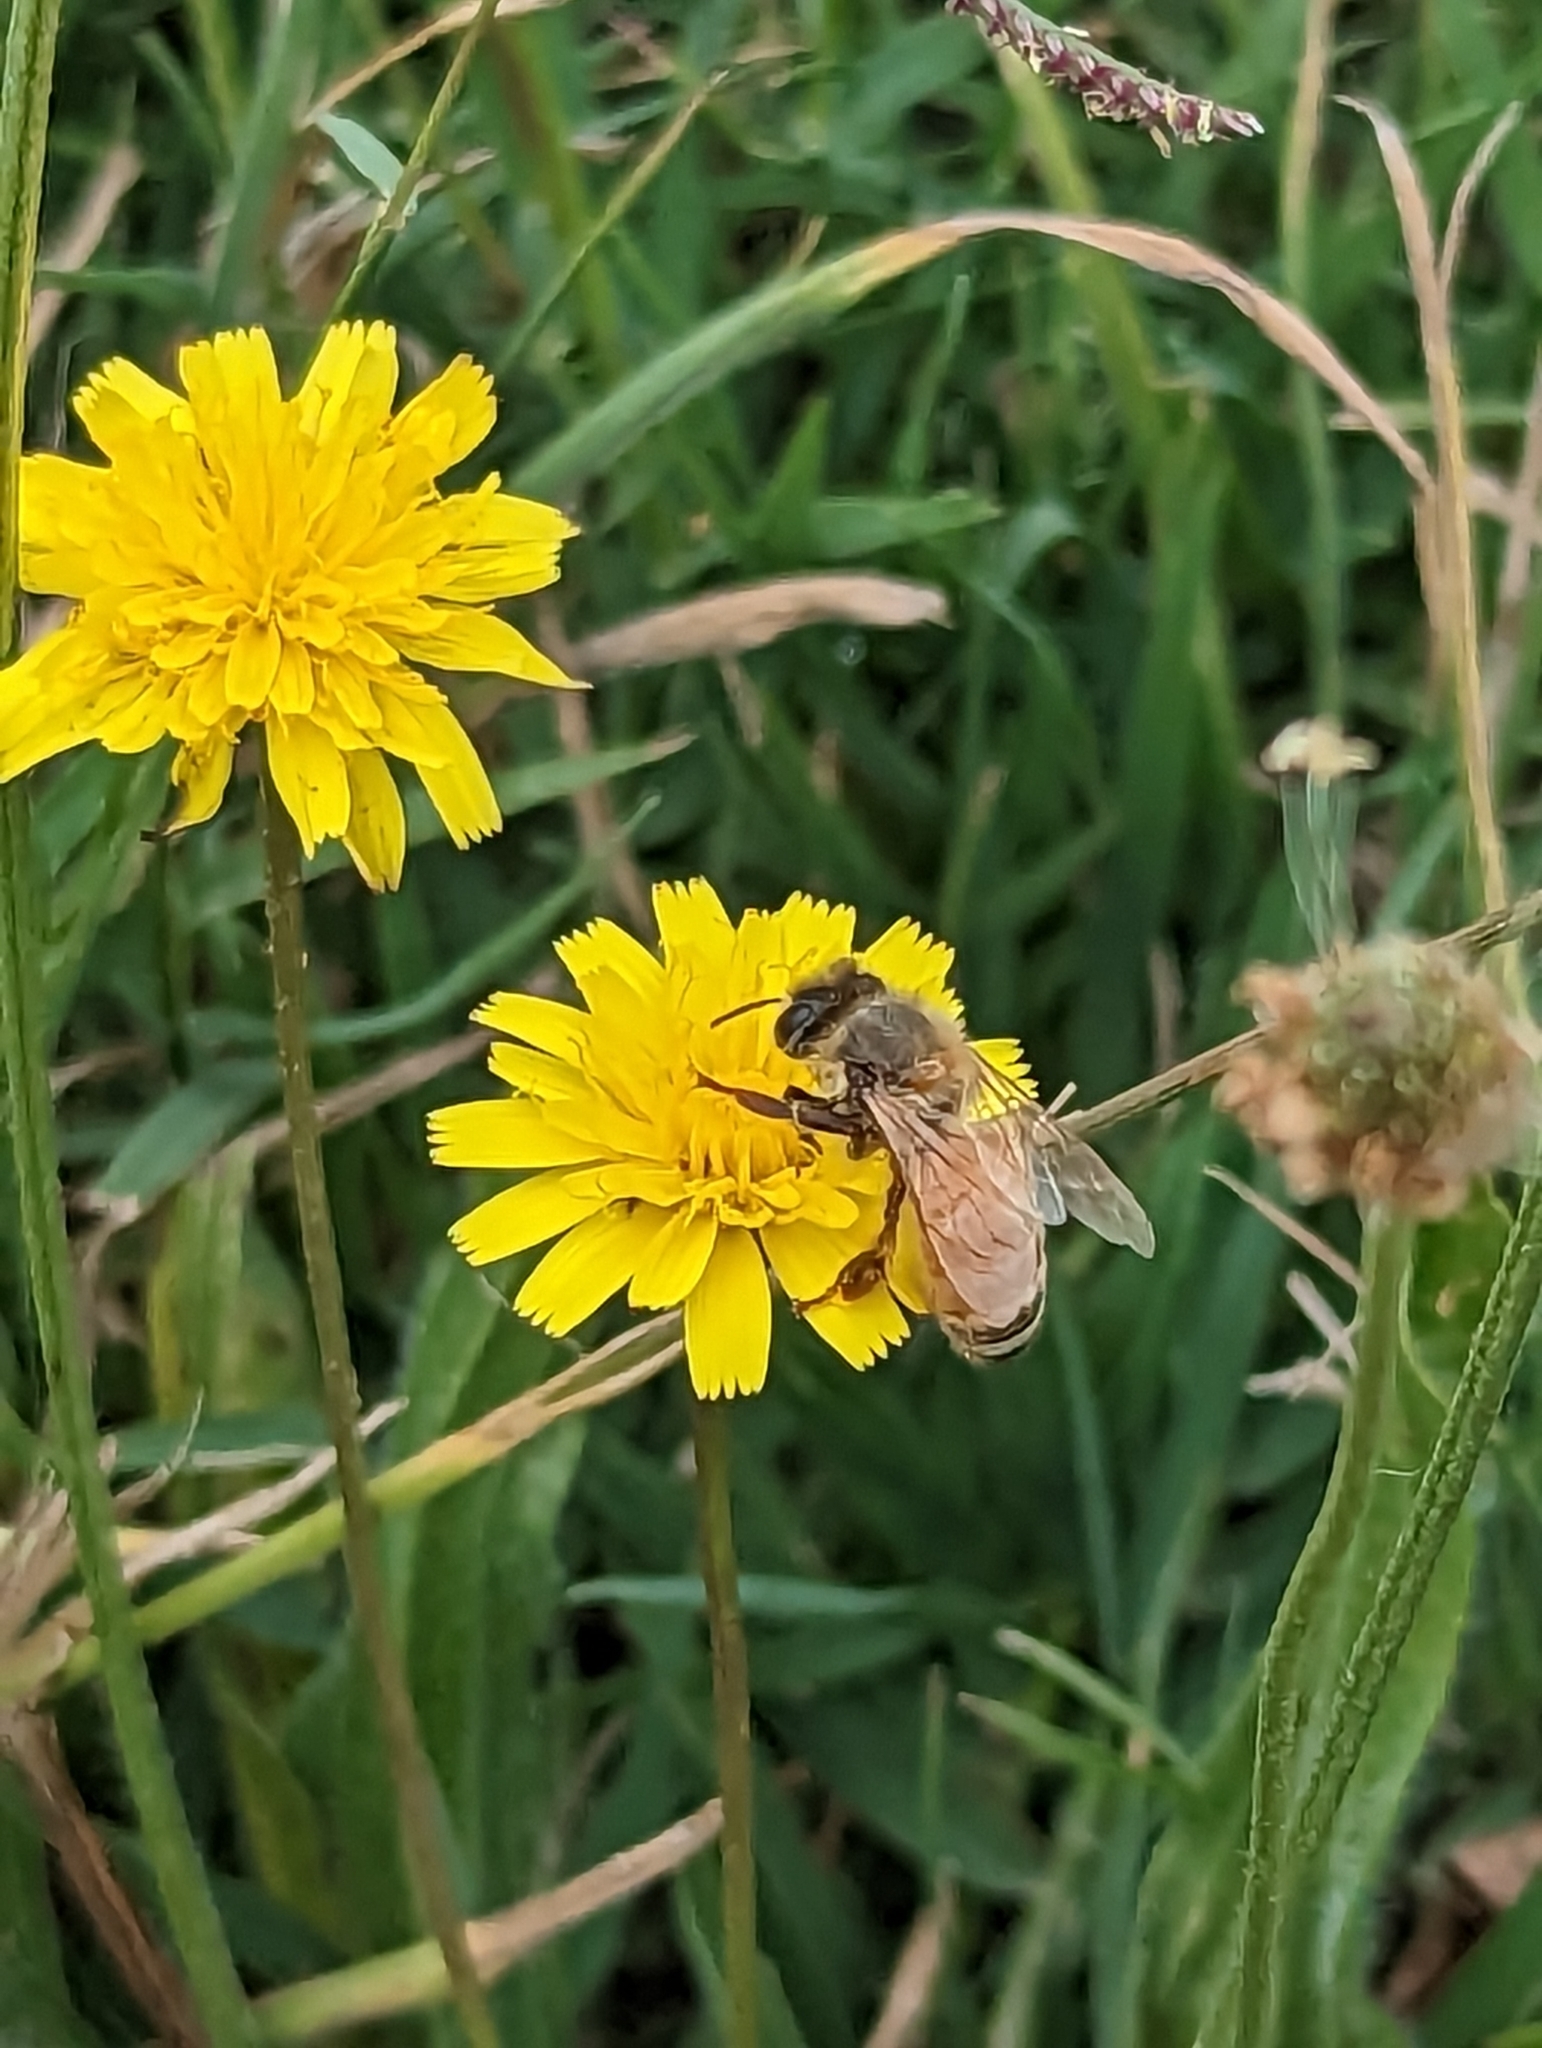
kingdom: Animalia
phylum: Arthropoda
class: Insecta
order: Hymenoptera
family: Apidae
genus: Apis
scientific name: Apis mellifera
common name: Honey bee
